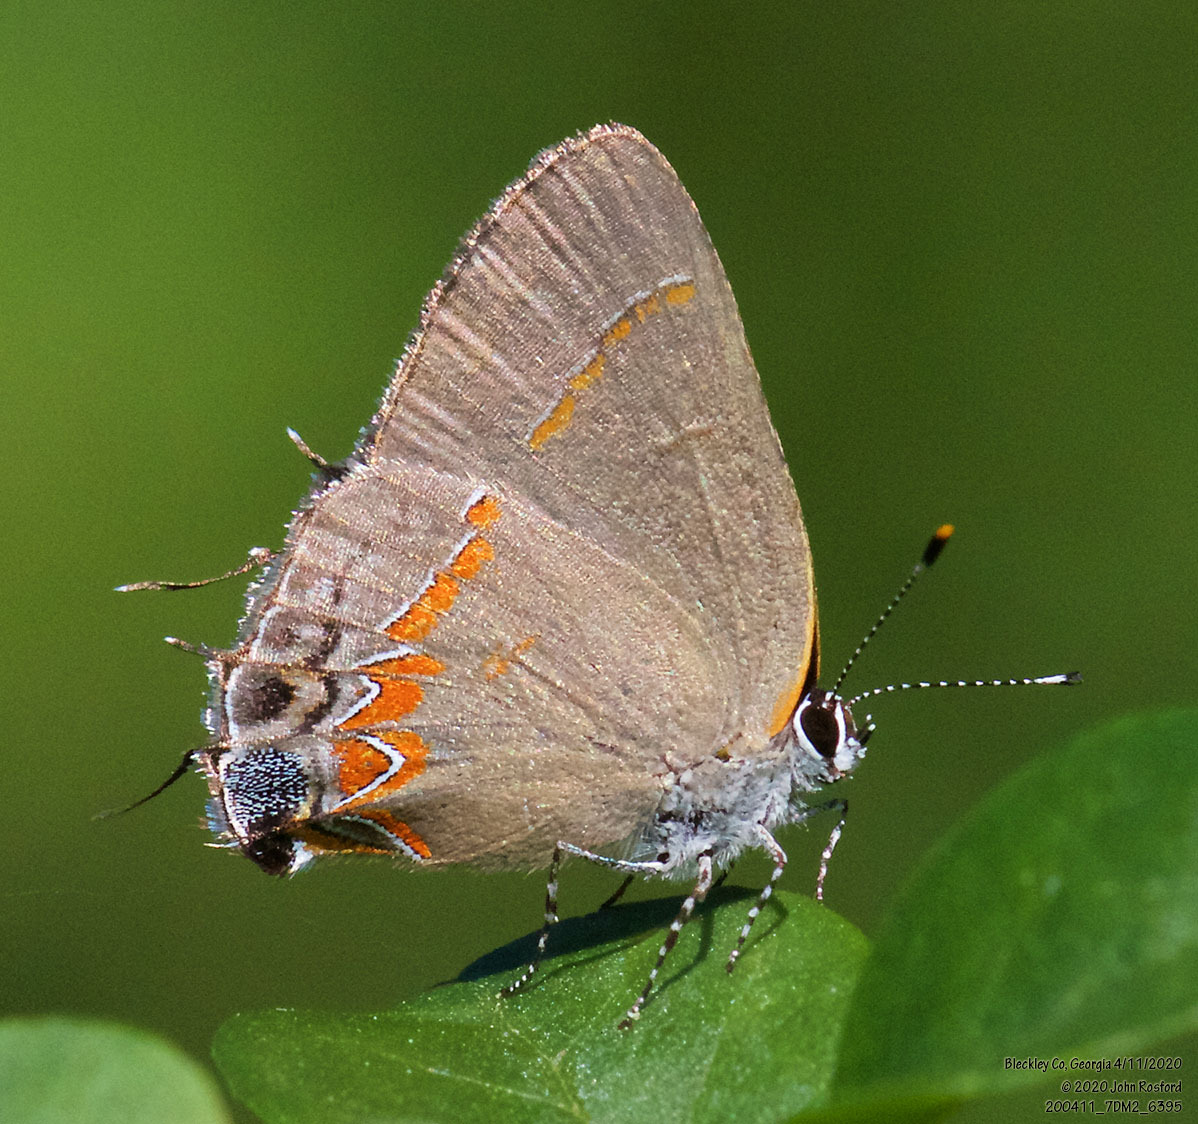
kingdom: Animalia
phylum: Arthropoda
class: Insecta
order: Lepidoptera
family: Lycaenidae
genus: Calycopis
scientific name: Calycopis cecrops
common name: Red-banded hairstreak
